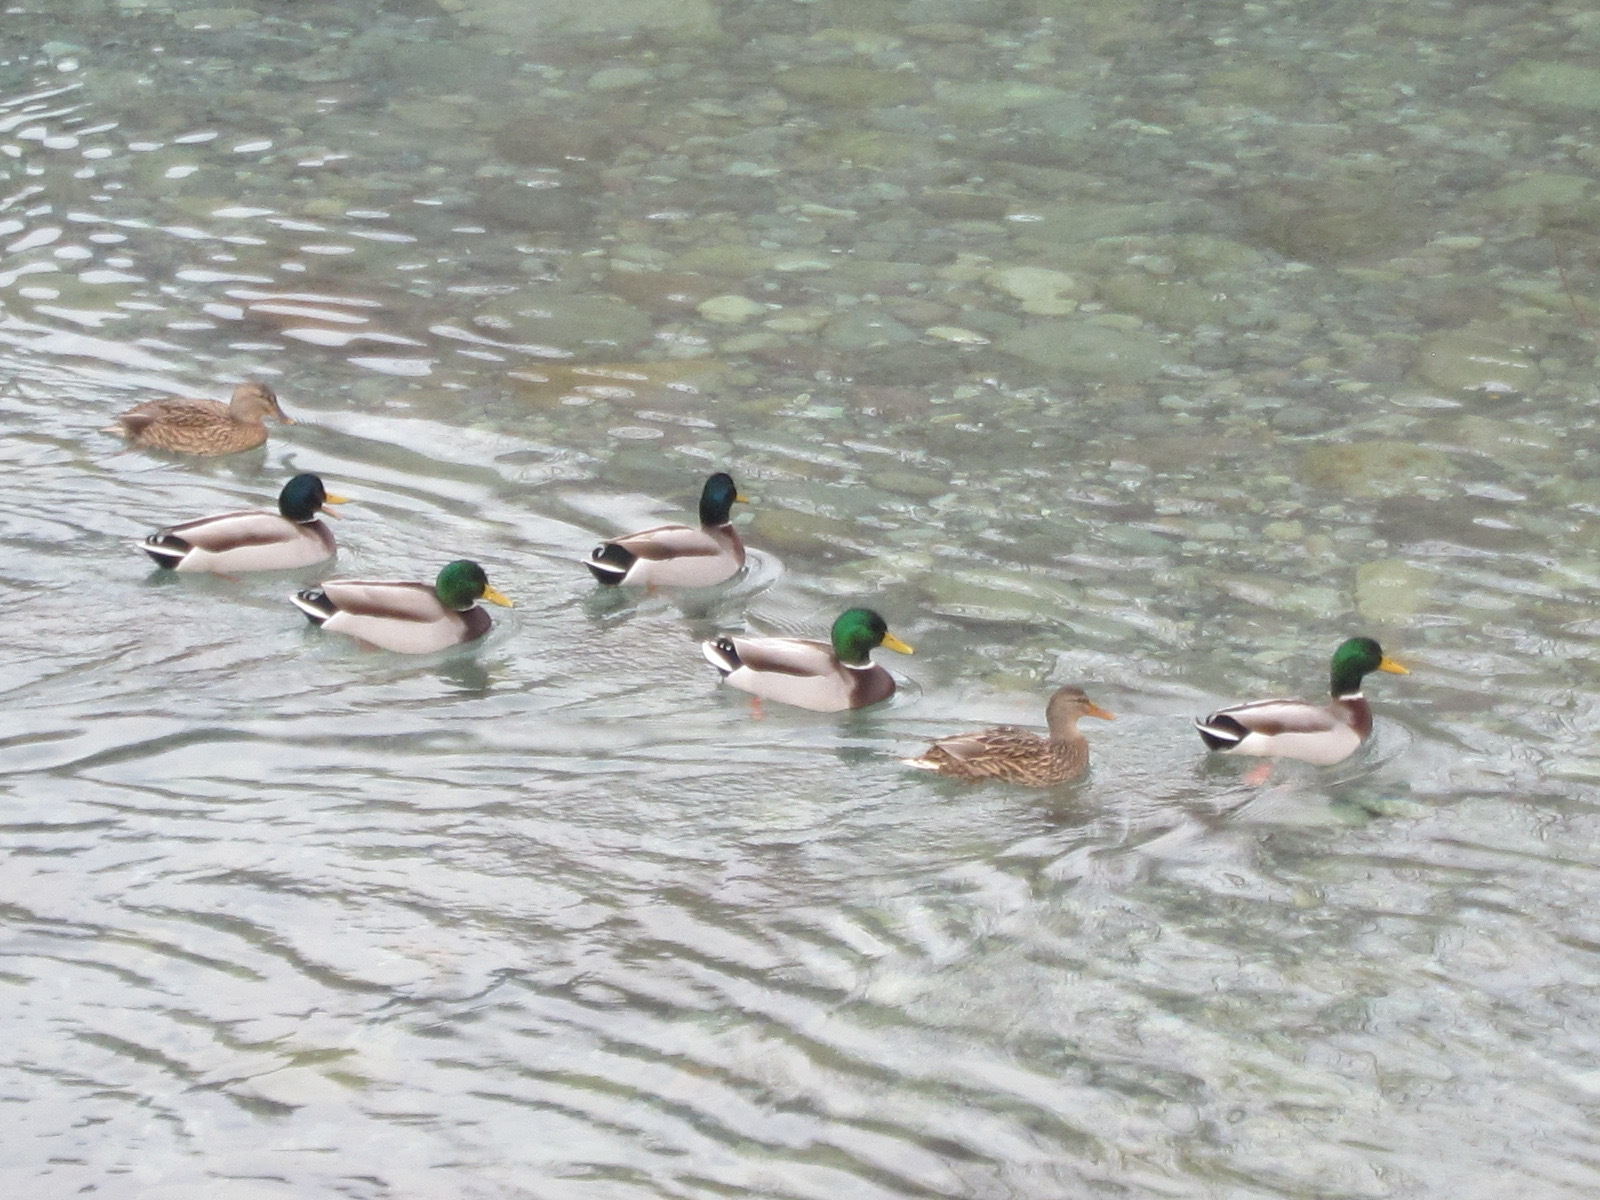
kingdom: Animalia
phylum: Chordata
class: Aves
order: Anseriformes
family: Anatidae
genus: Anas
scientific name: Anas platyrhynchos
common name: Mallard
